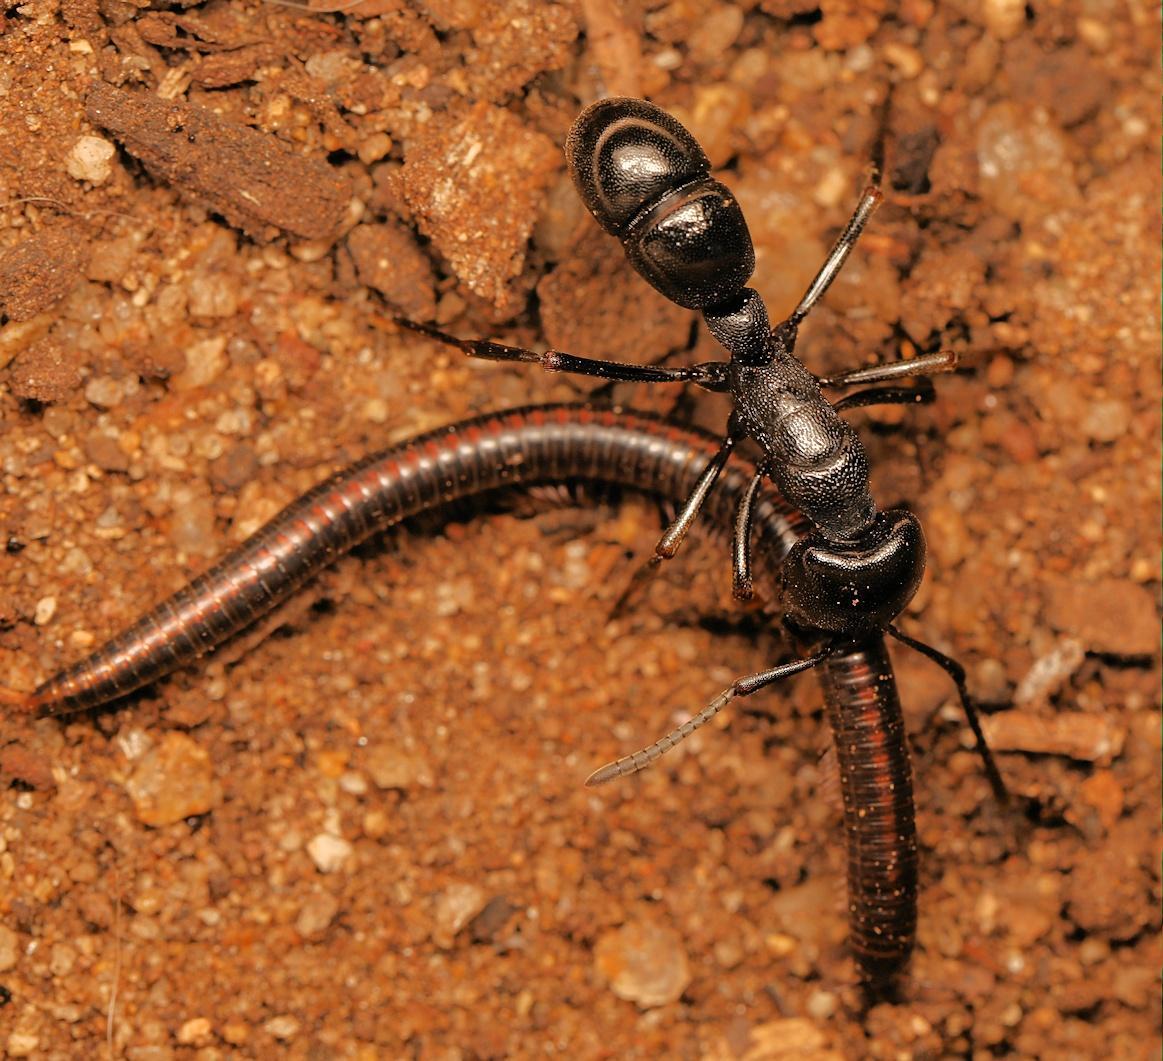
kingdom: Animalia
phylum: Arthropoda
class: Insecta
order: Hymenoptera
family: Formicidae
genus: Plectroctena
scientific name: Plectroctena mandibularis
